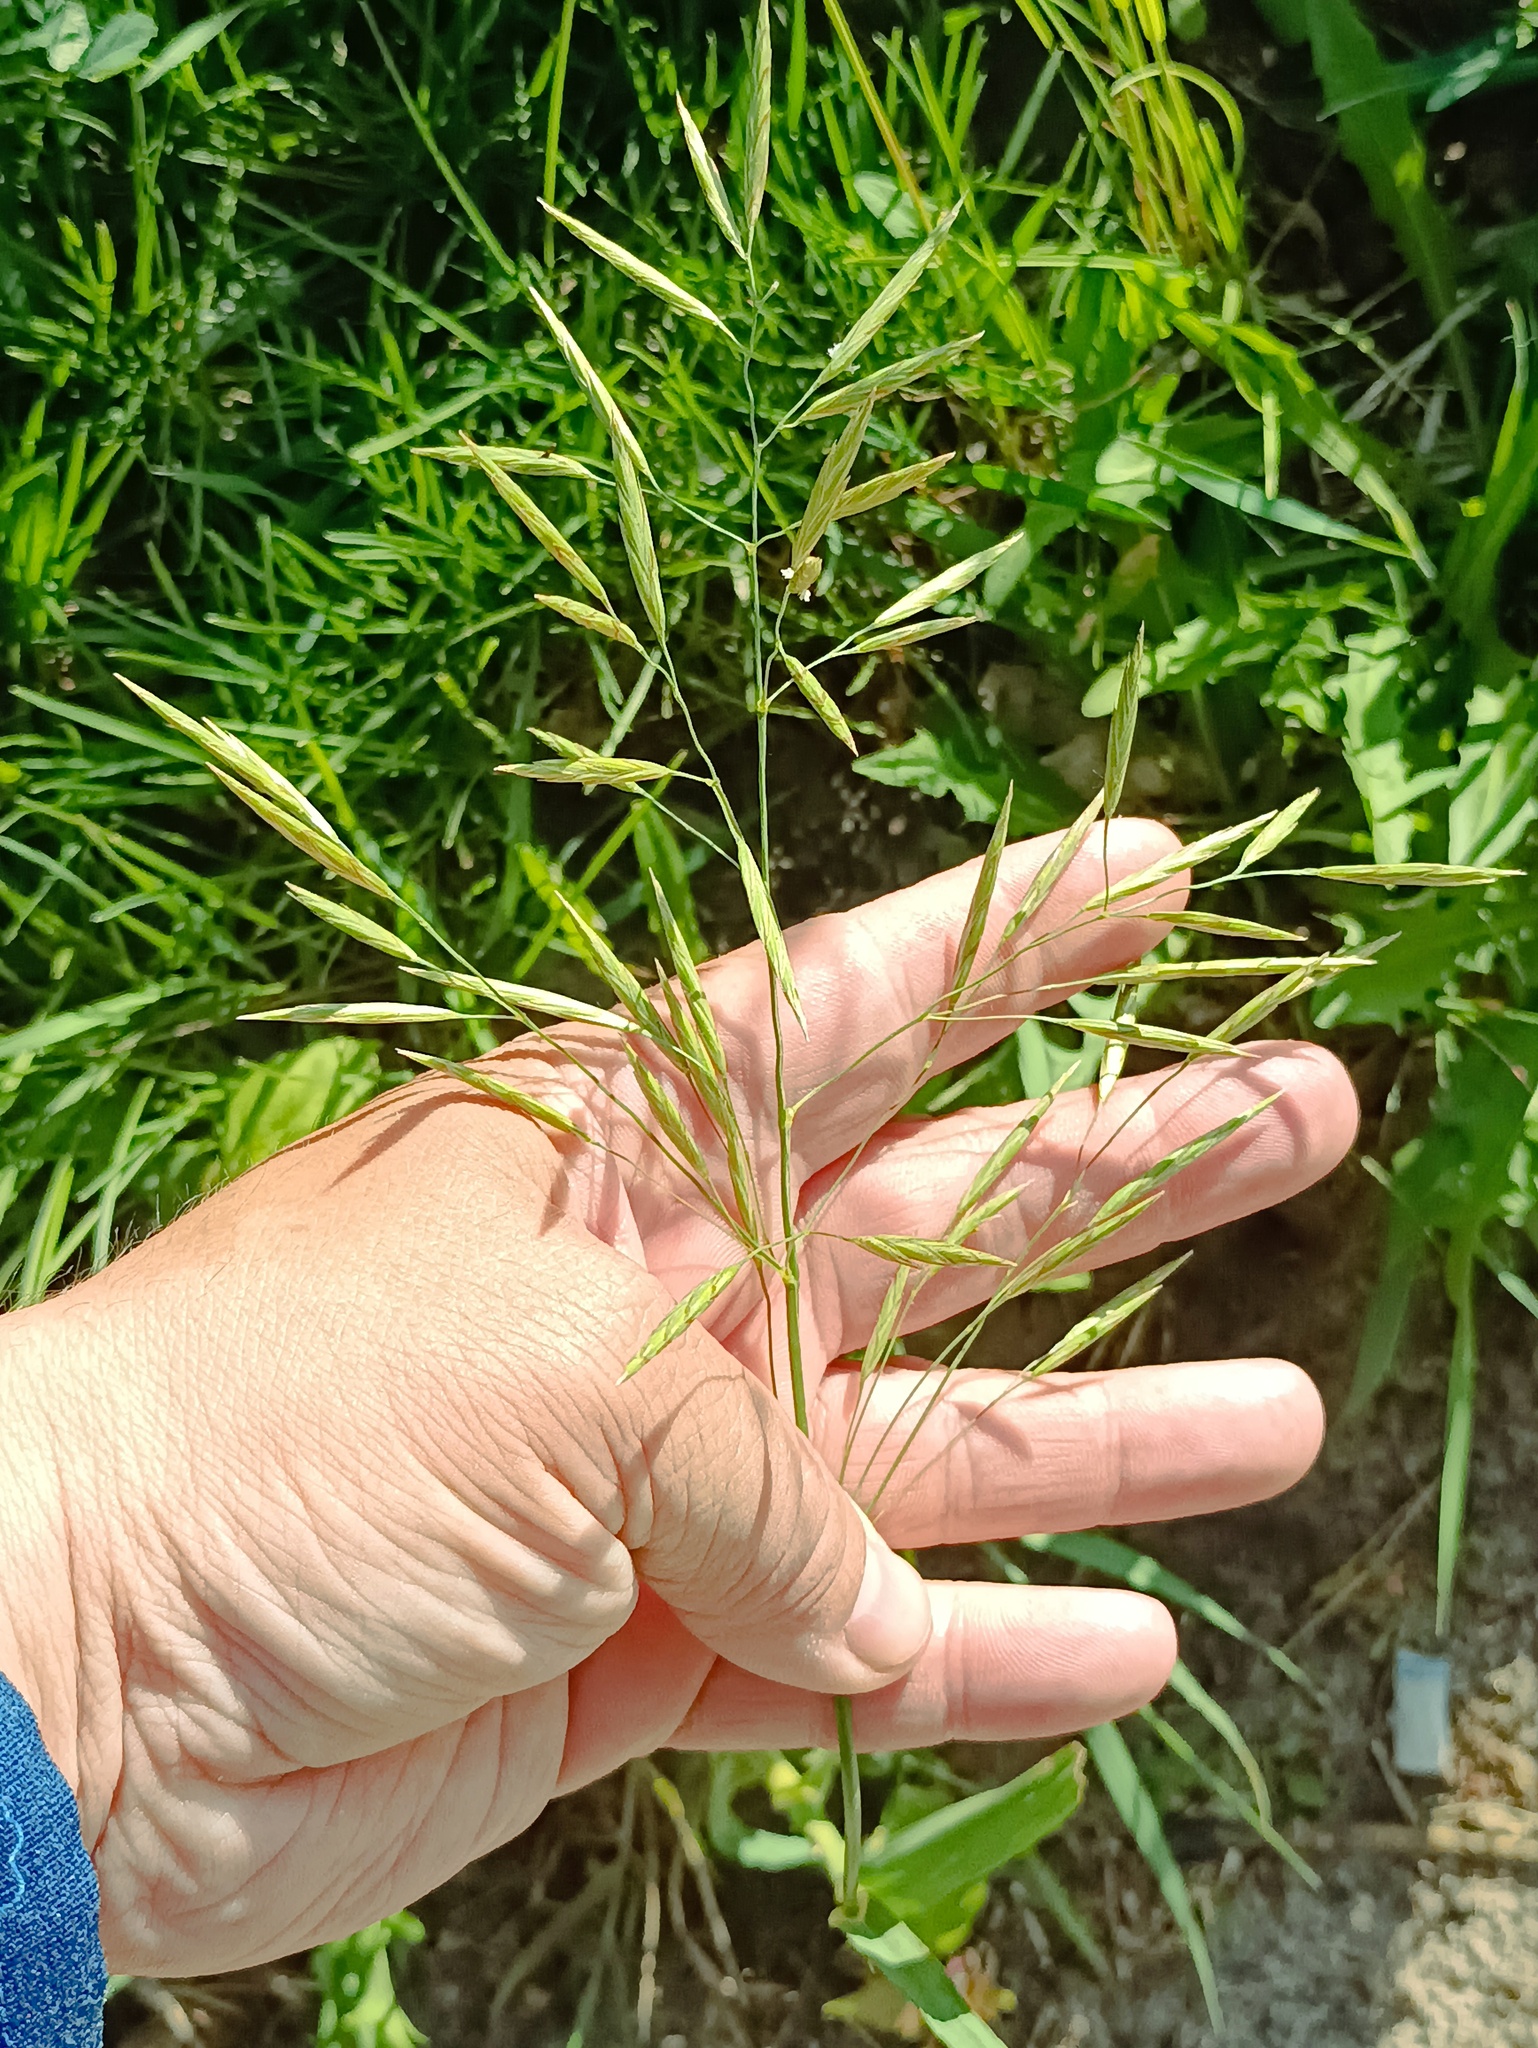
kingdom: Plantae
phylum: Tracheophyta
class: Liliopsida
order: Poales
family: Poaceae
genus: Bromus
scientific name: Bromus inermis
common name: Smooth brome
